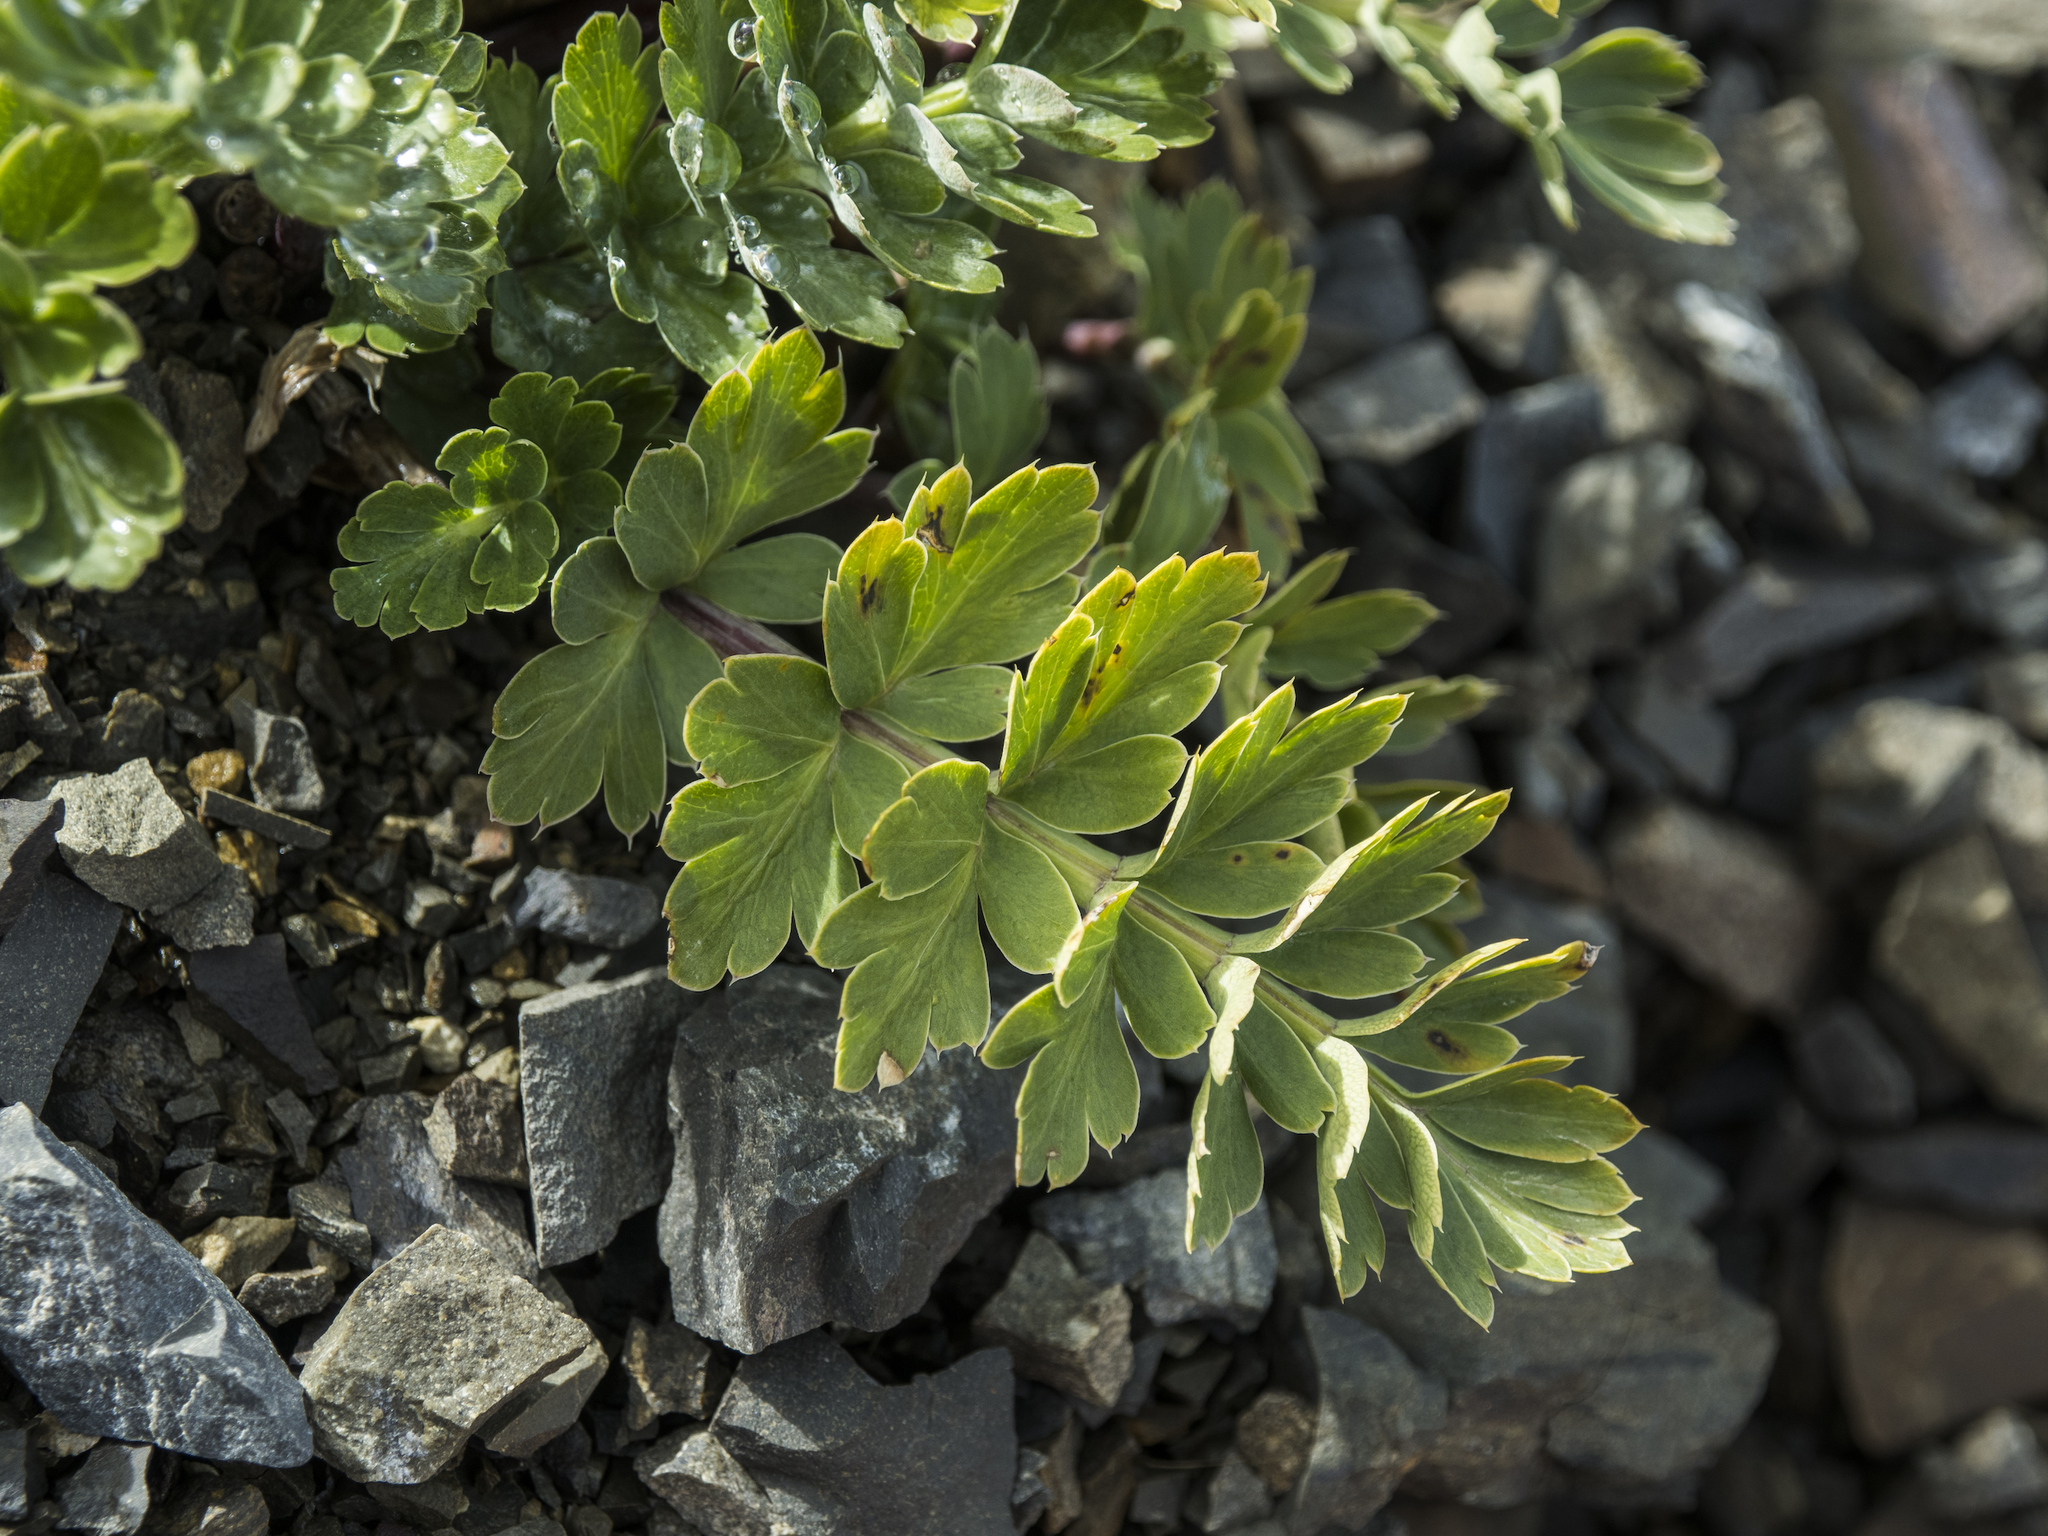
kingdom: Plantae
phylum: Tracheophyta
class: Magnoliopsida
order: Apiales
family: Apiaceae
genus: Anisotome
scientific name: Anisotome pilifera
